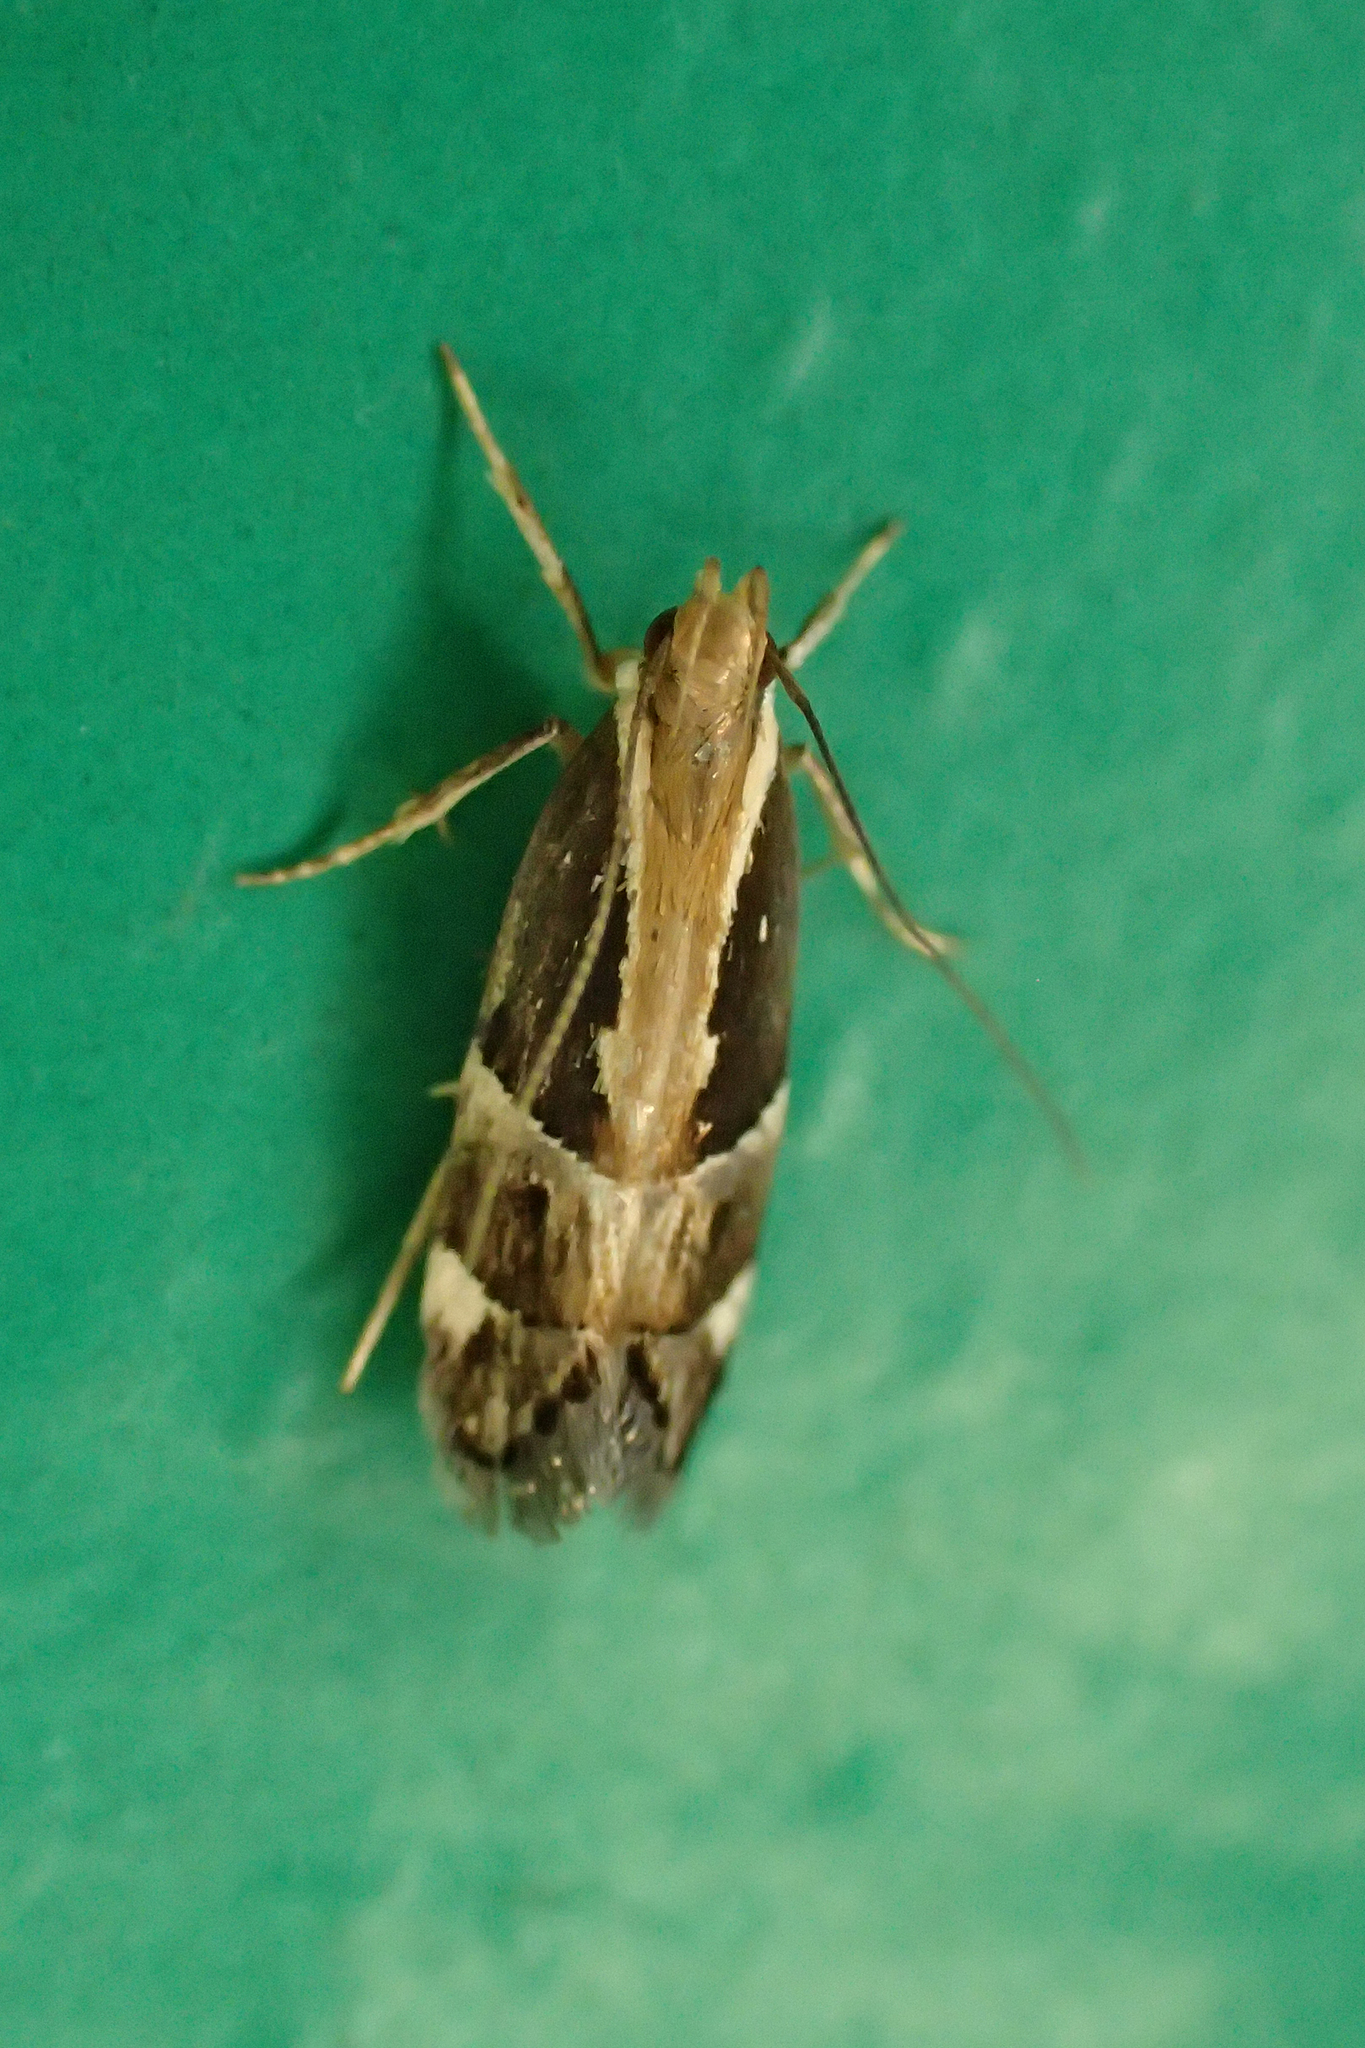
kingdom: Animalia
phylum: Arthropoda
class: Insecta
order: Lepidoptera
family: Gelechiidae
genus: Helcystogramma
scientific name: Helcystogramma lamprostoma
